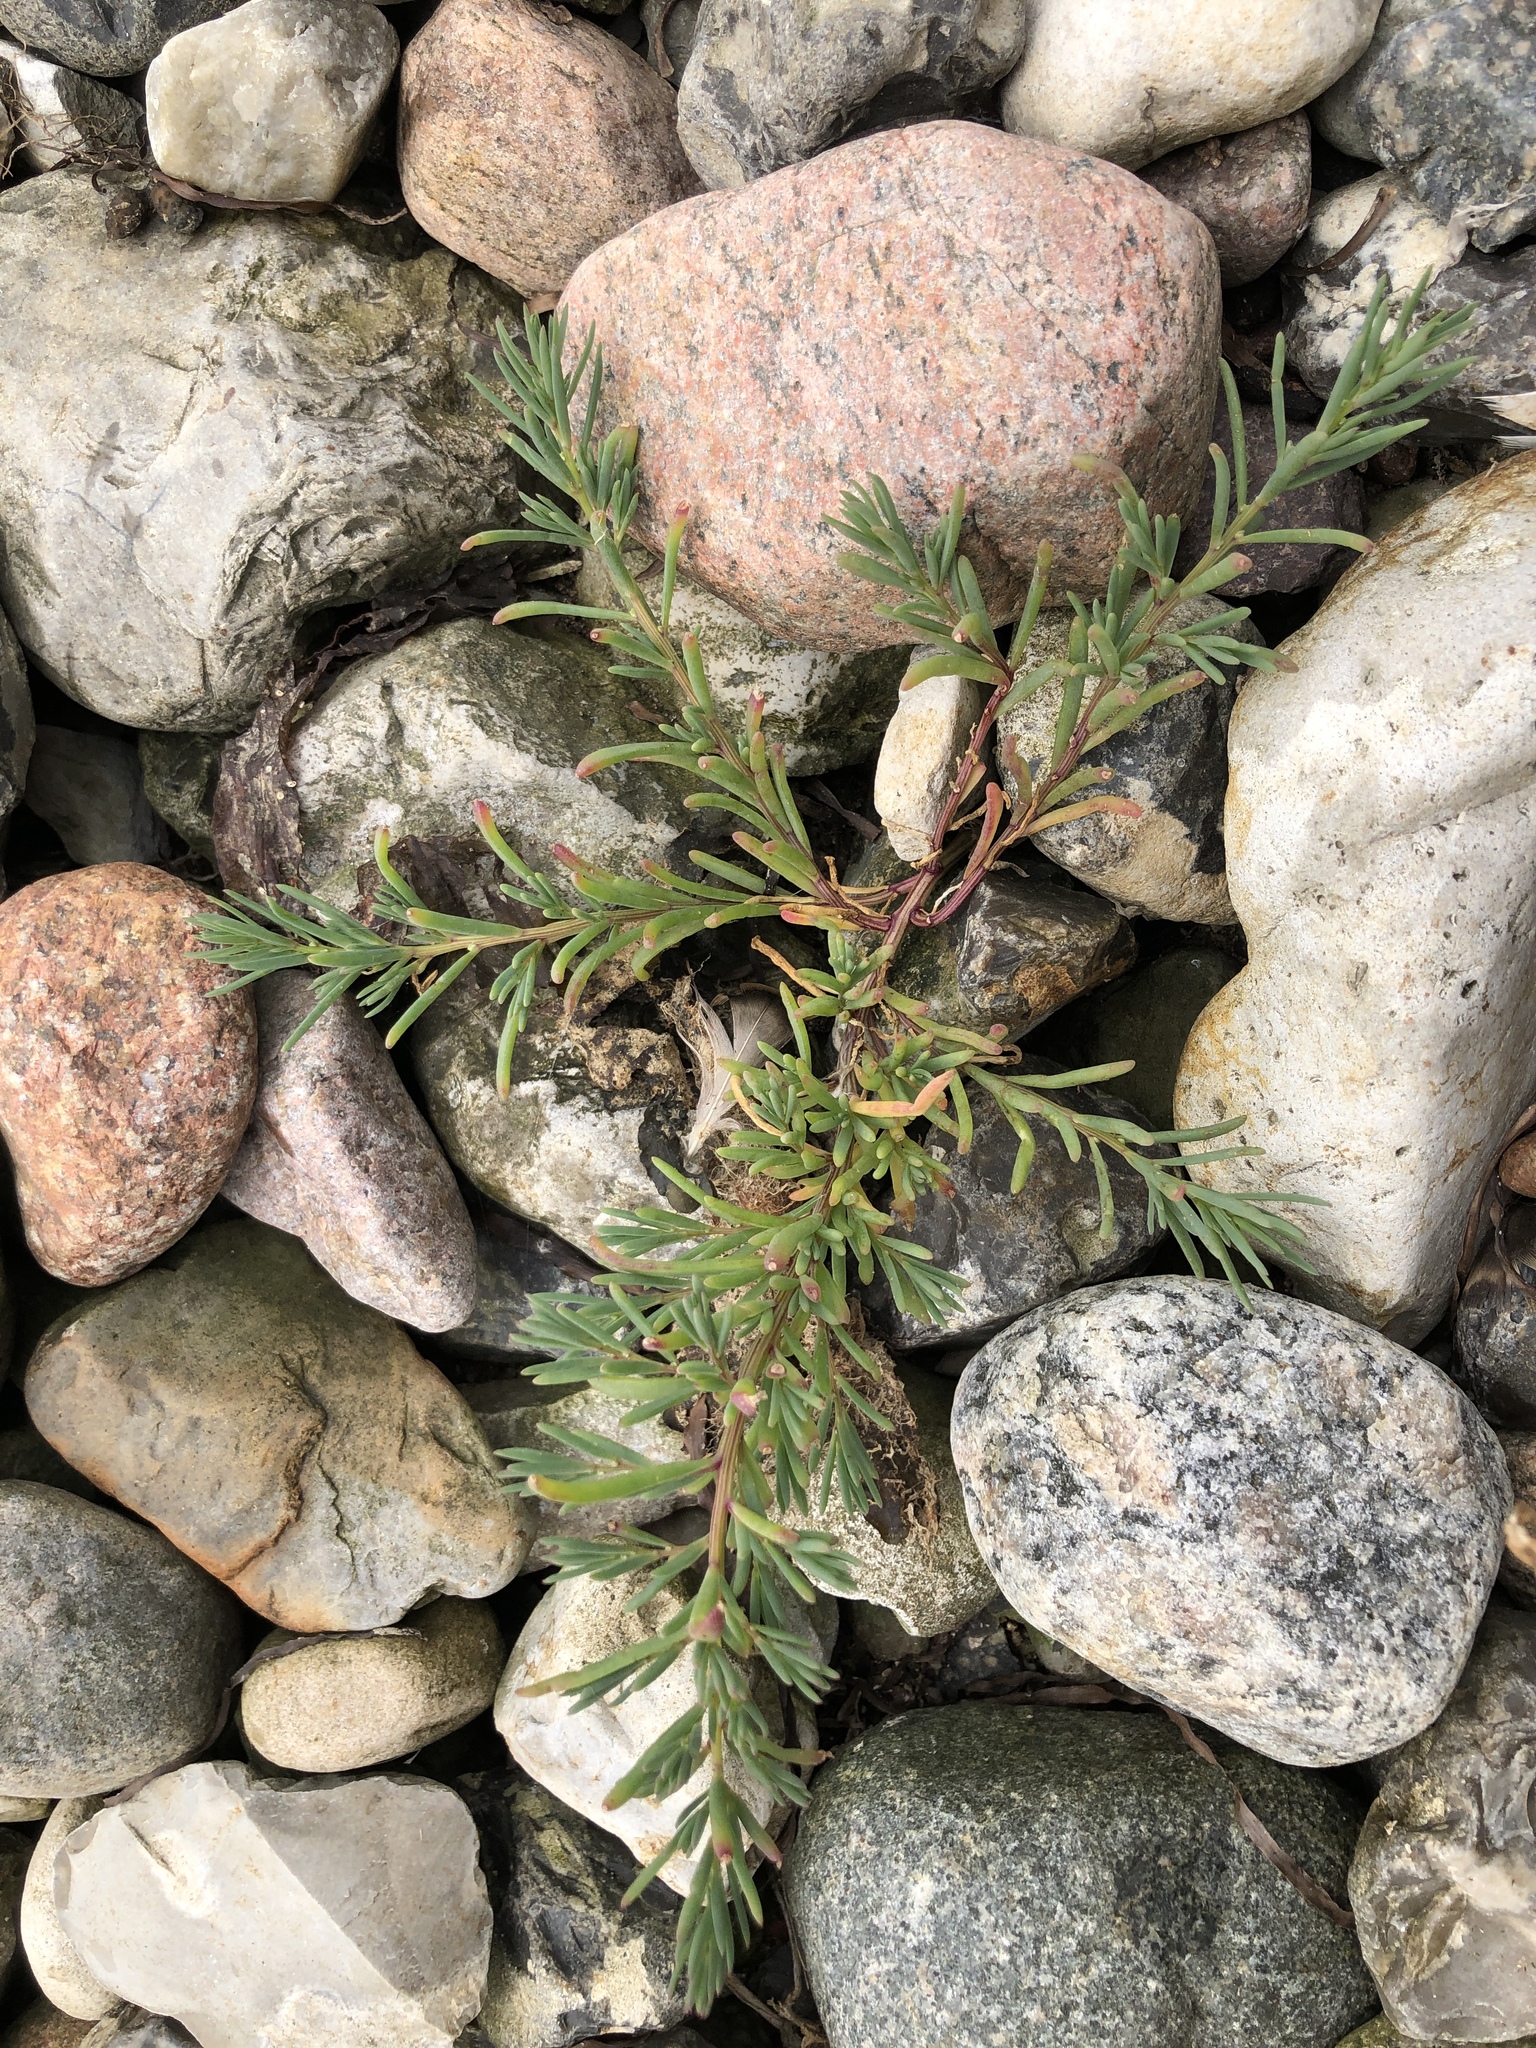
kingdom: Plantae
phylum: Tracheophyta
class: Magnoliopsida
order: Caryophyllales
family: Amaranthaceae
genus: Suaeda
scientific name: Suaeda maritima
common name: Annual sea-blite
